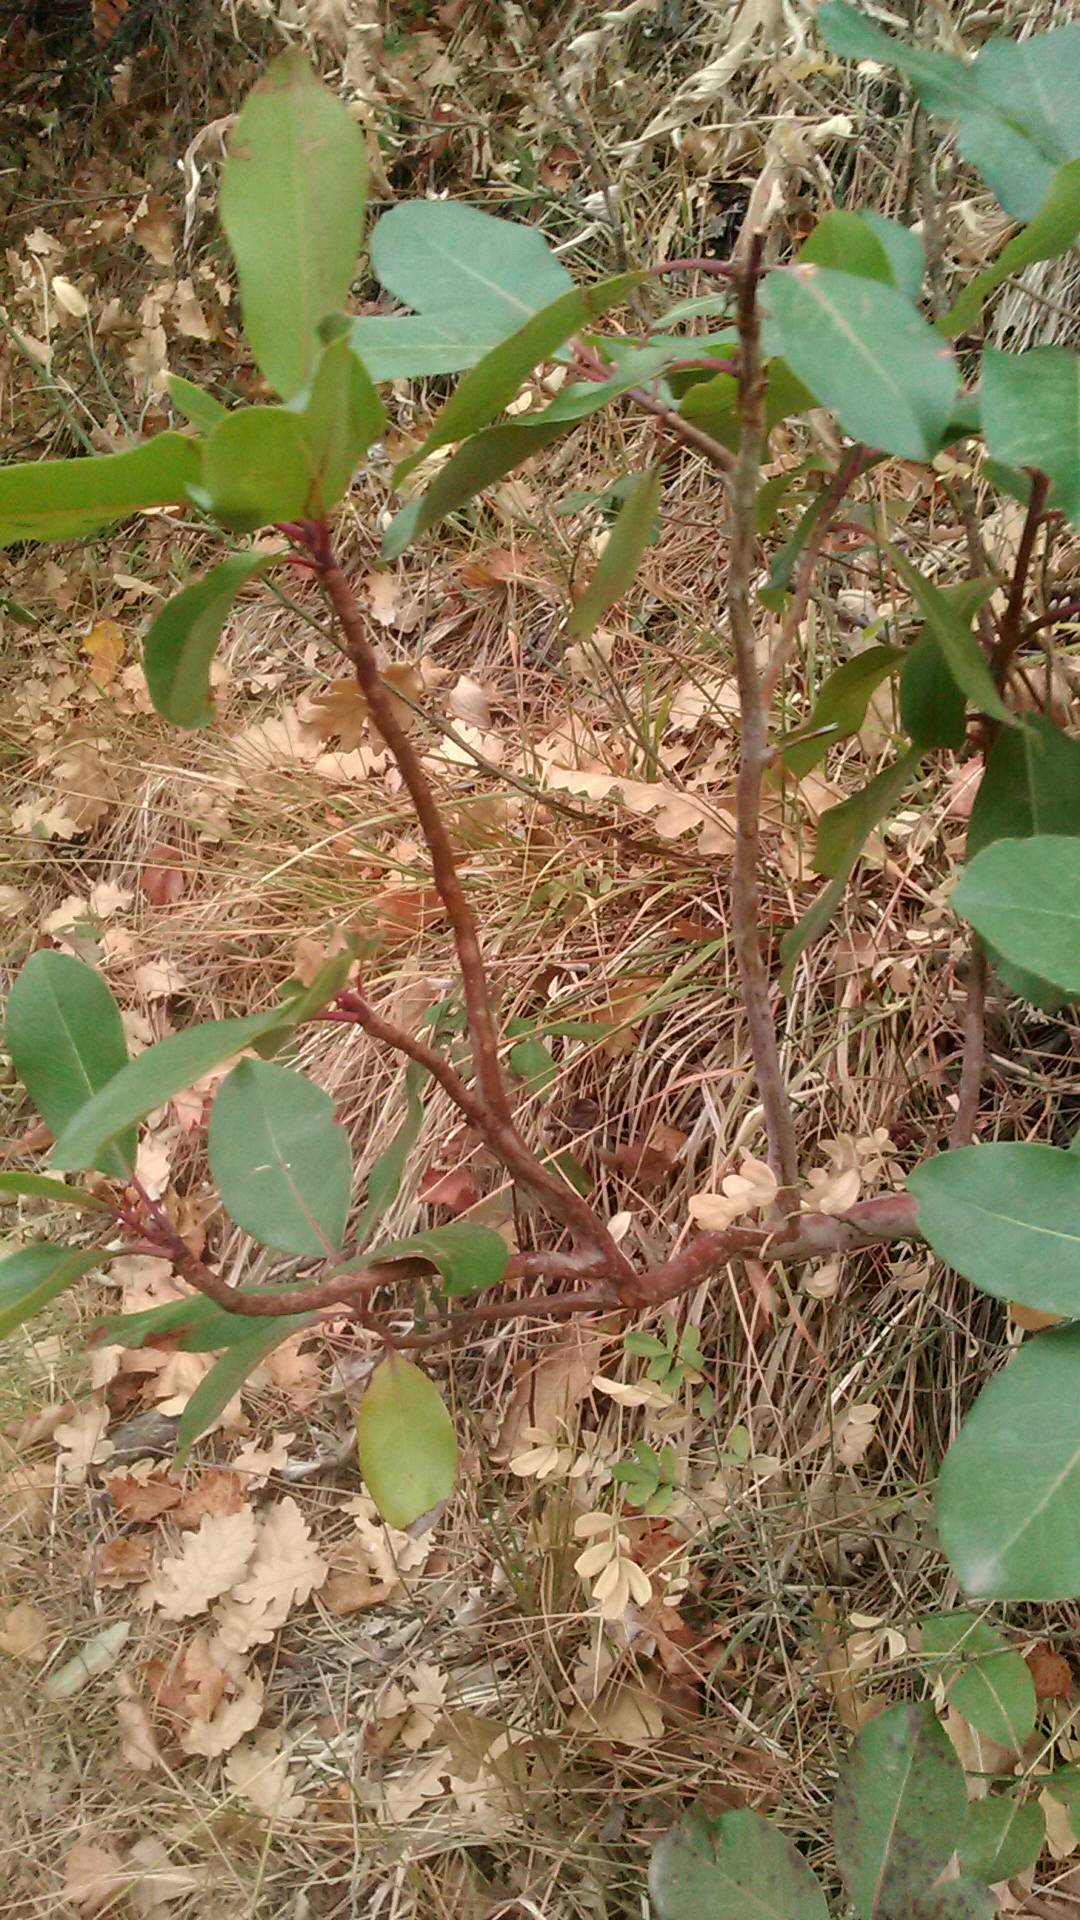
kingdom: Plantae
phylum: Tracheophyta
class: Magnoliopsida
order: Ericales
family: Ericaceae
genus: Arbutus
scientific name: Arbutus andrachne
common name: Greek strawberry tree
